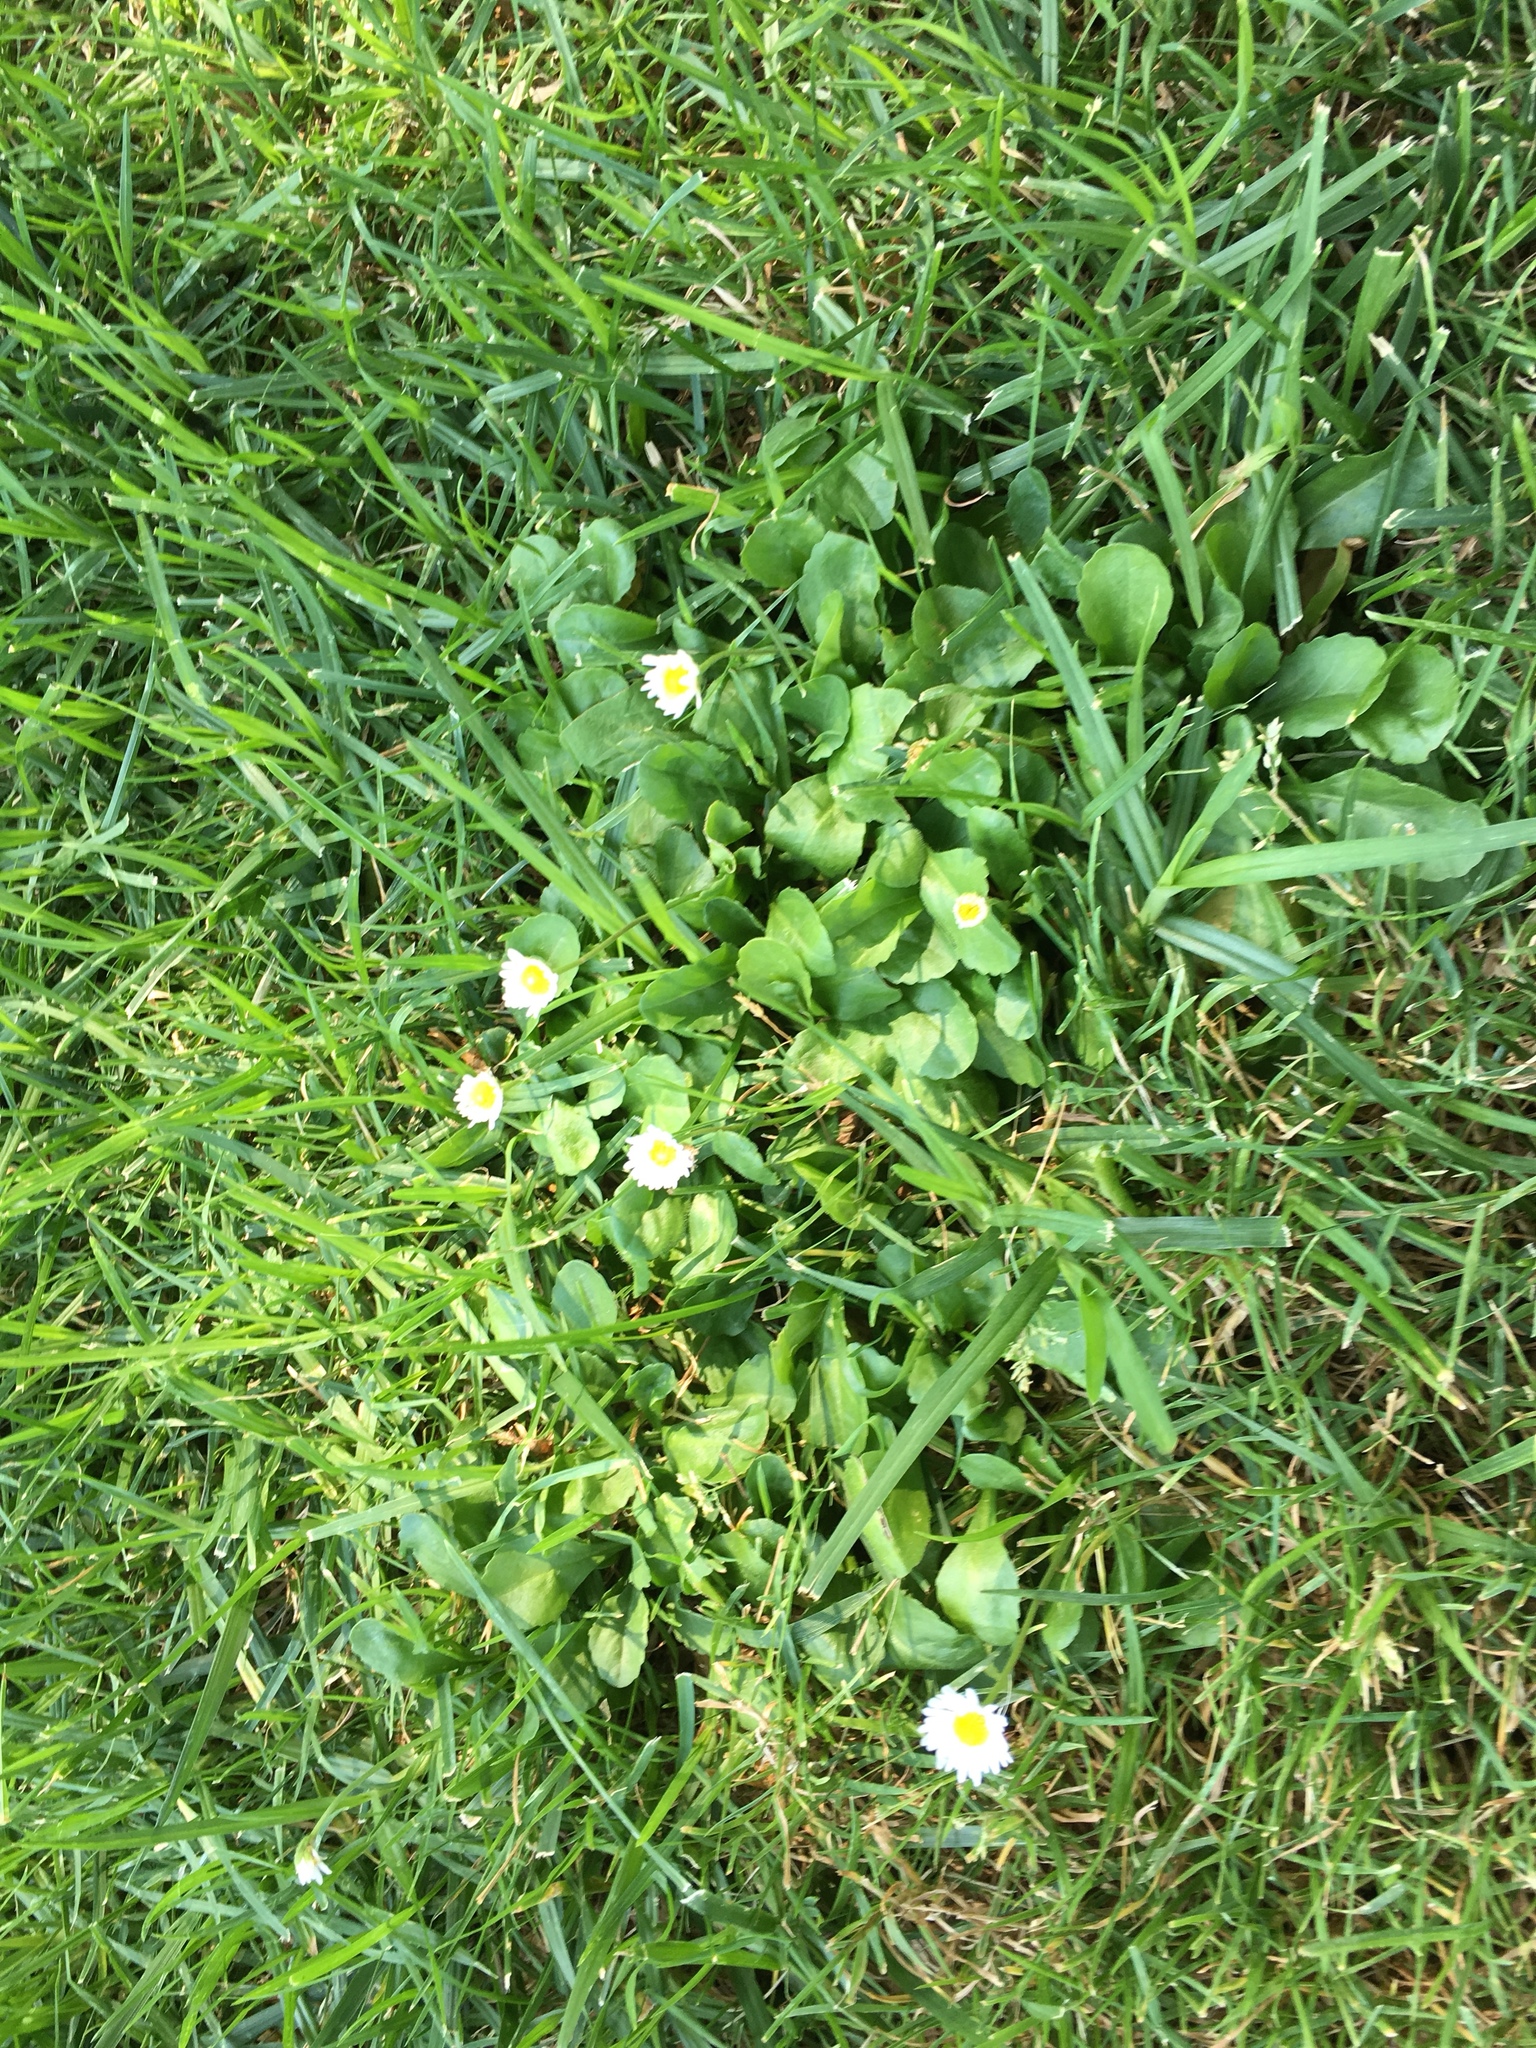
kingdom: Plantae
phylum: Tracheophyta
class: Magnoliopsida
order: Asterales
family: Asteraceae
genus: Bellis
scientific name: Bellis perennis
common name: Lawndaisy
